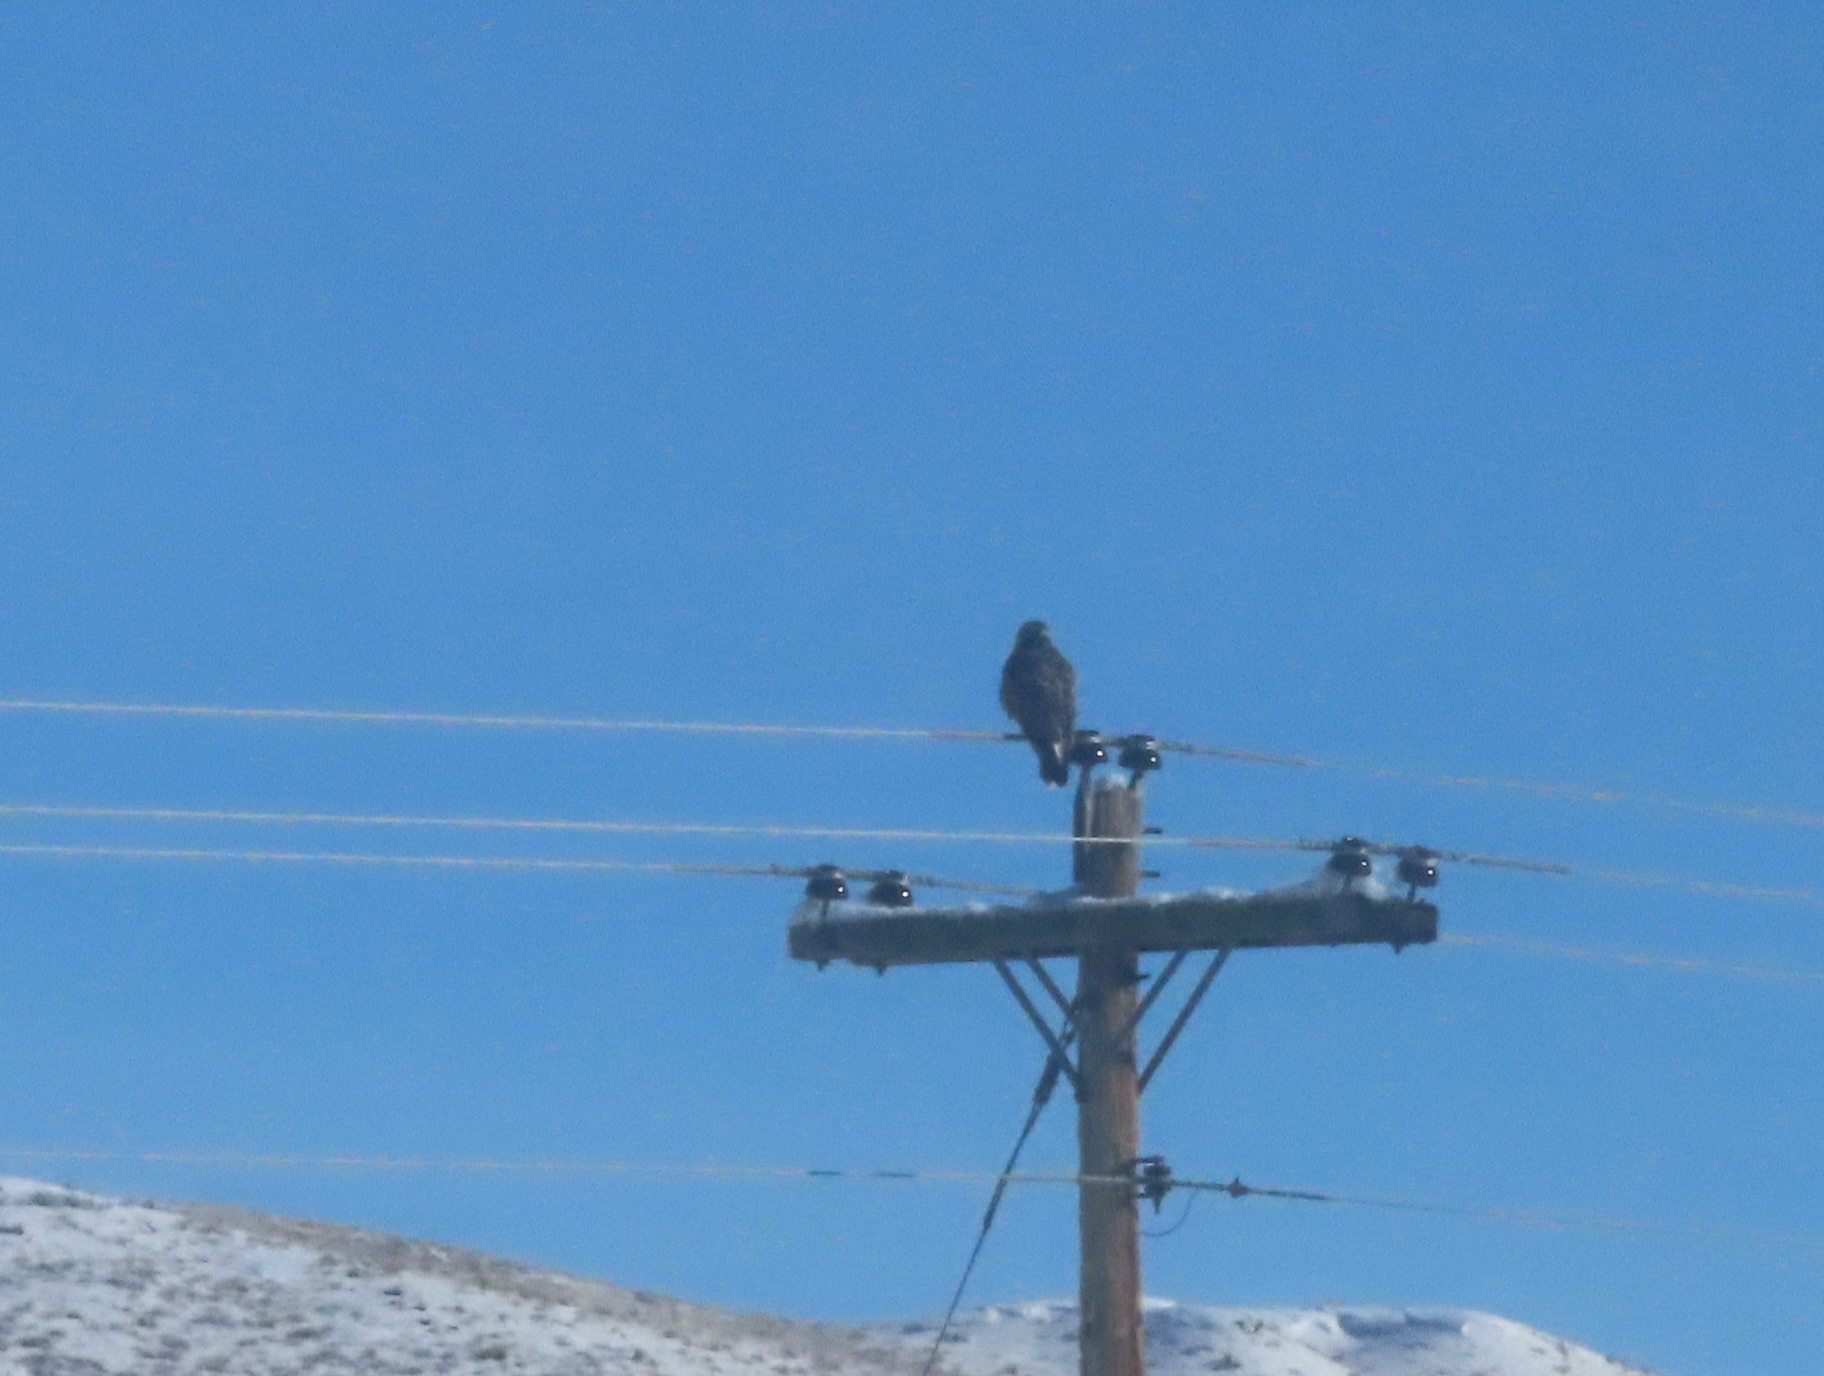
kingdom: Animalia
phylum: Chordata
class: Aves
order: Accipitriformes
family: Accipitridae
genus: Buteo
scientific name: Buteo lagopus
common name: Rough-legged buzzard
